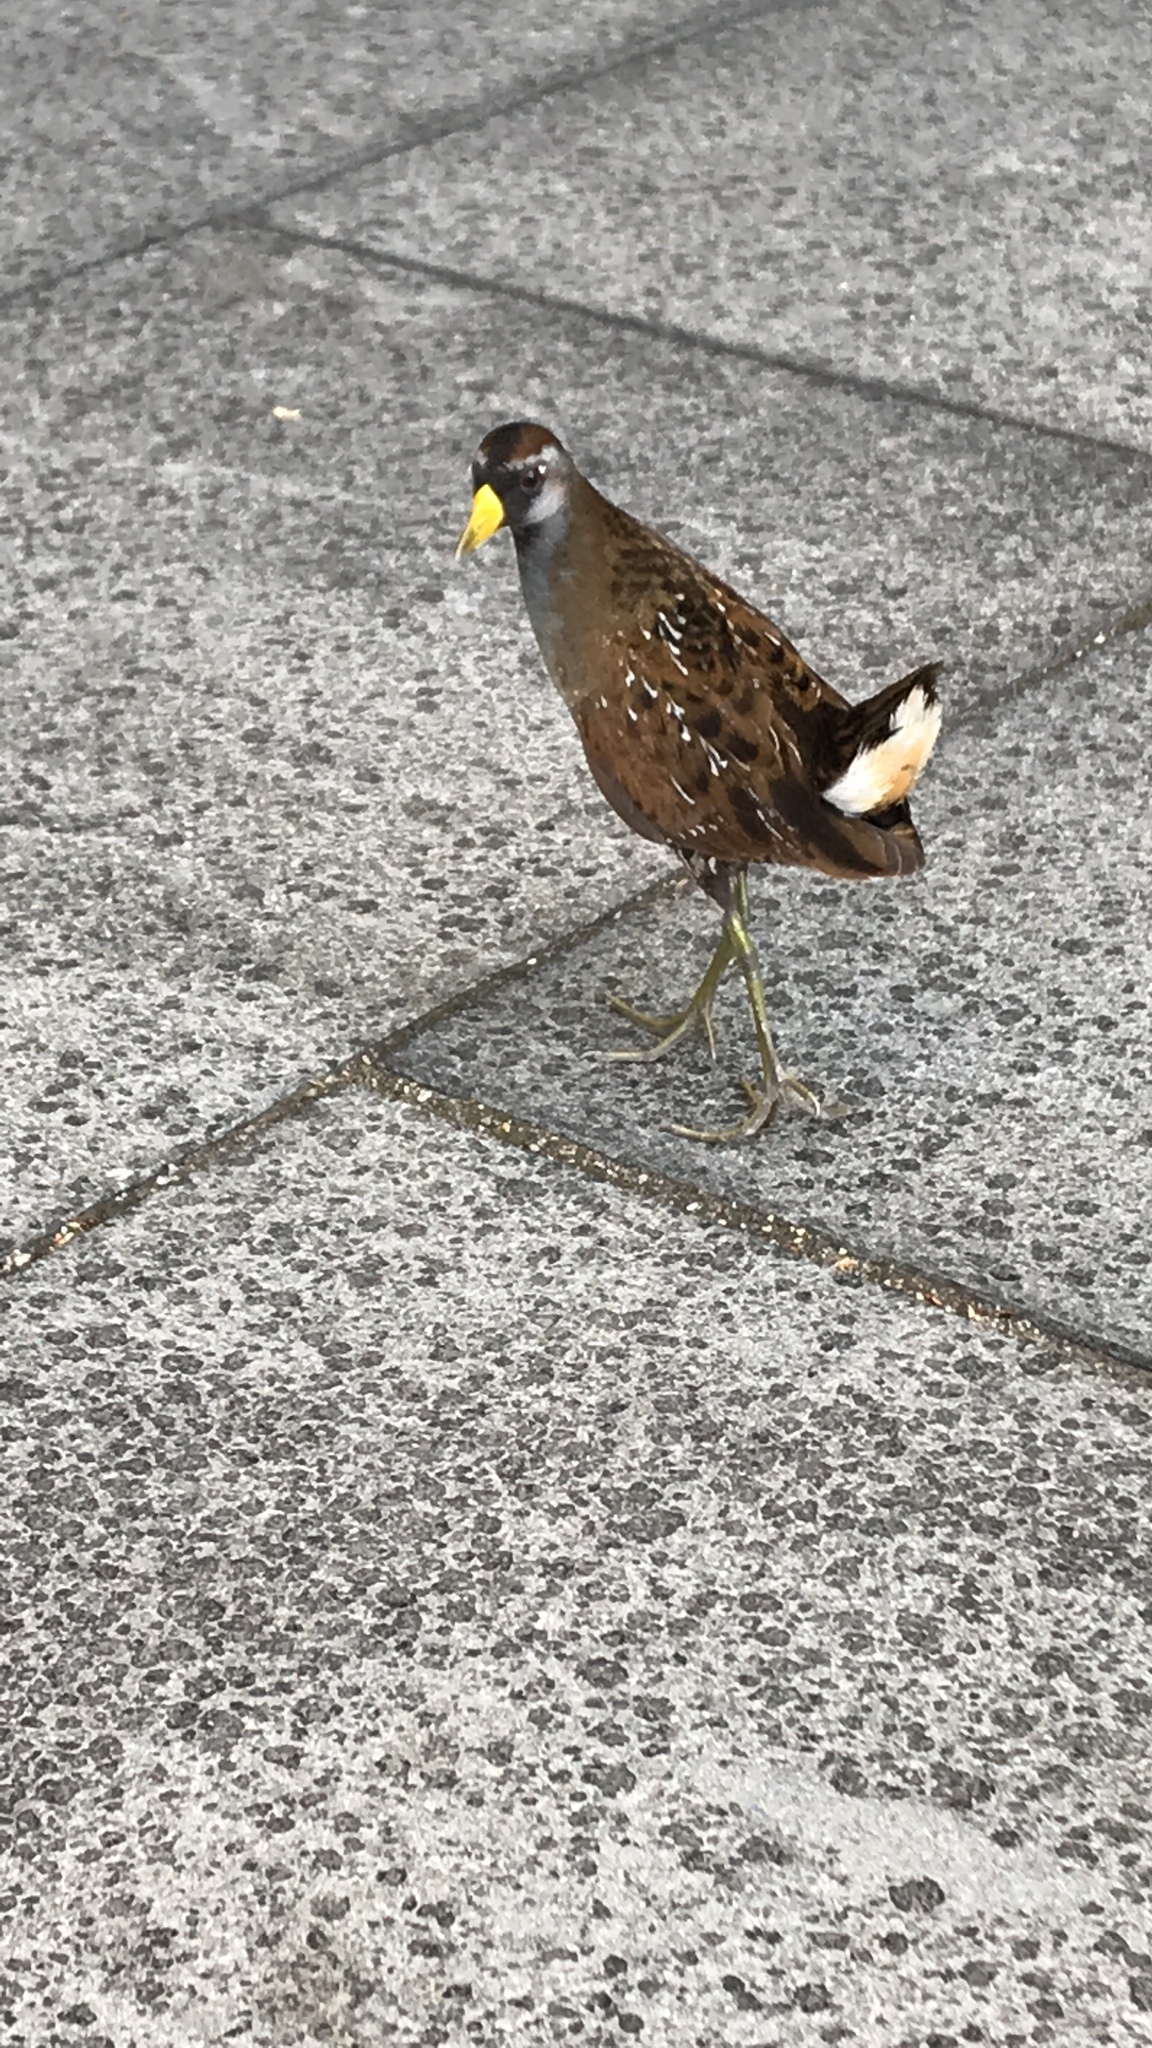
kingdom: Animalia
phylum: Chordata
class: Aves
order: Gruiformes
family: Rallidae
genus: Porzana
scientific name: Porzana carolina
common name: Sora
